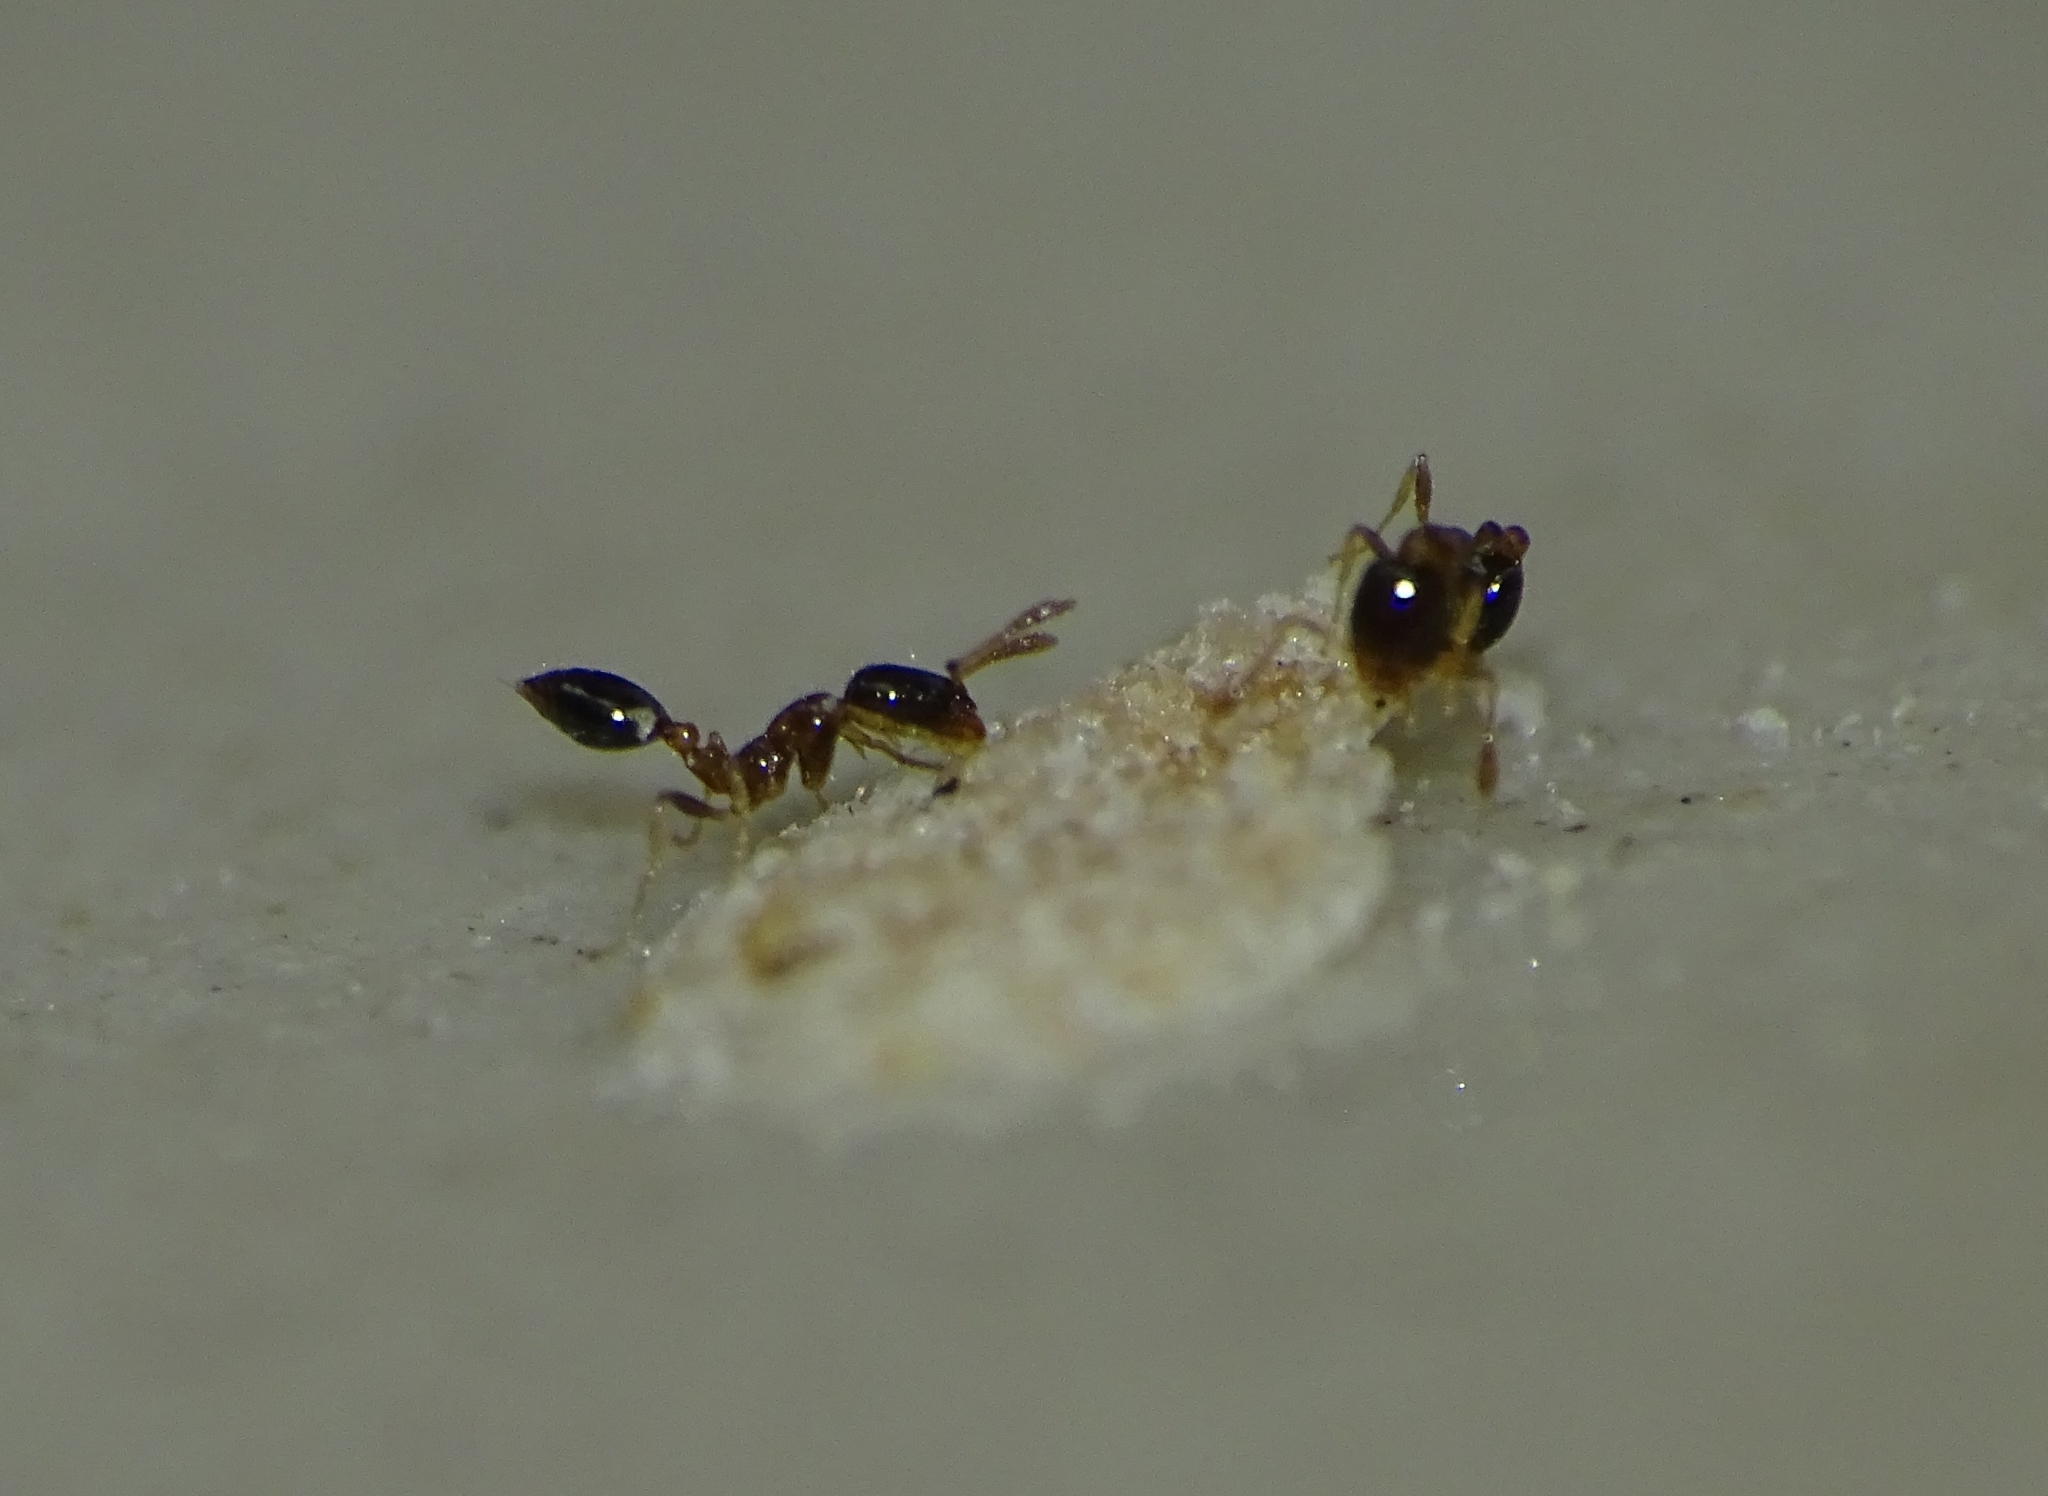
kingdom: Animalia
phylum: Arthropoda
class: Insecta
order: Hymenoptera
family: Formicidae
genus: Monomorium
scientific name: Monomorium floricola
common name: Bicolored trailing ant
